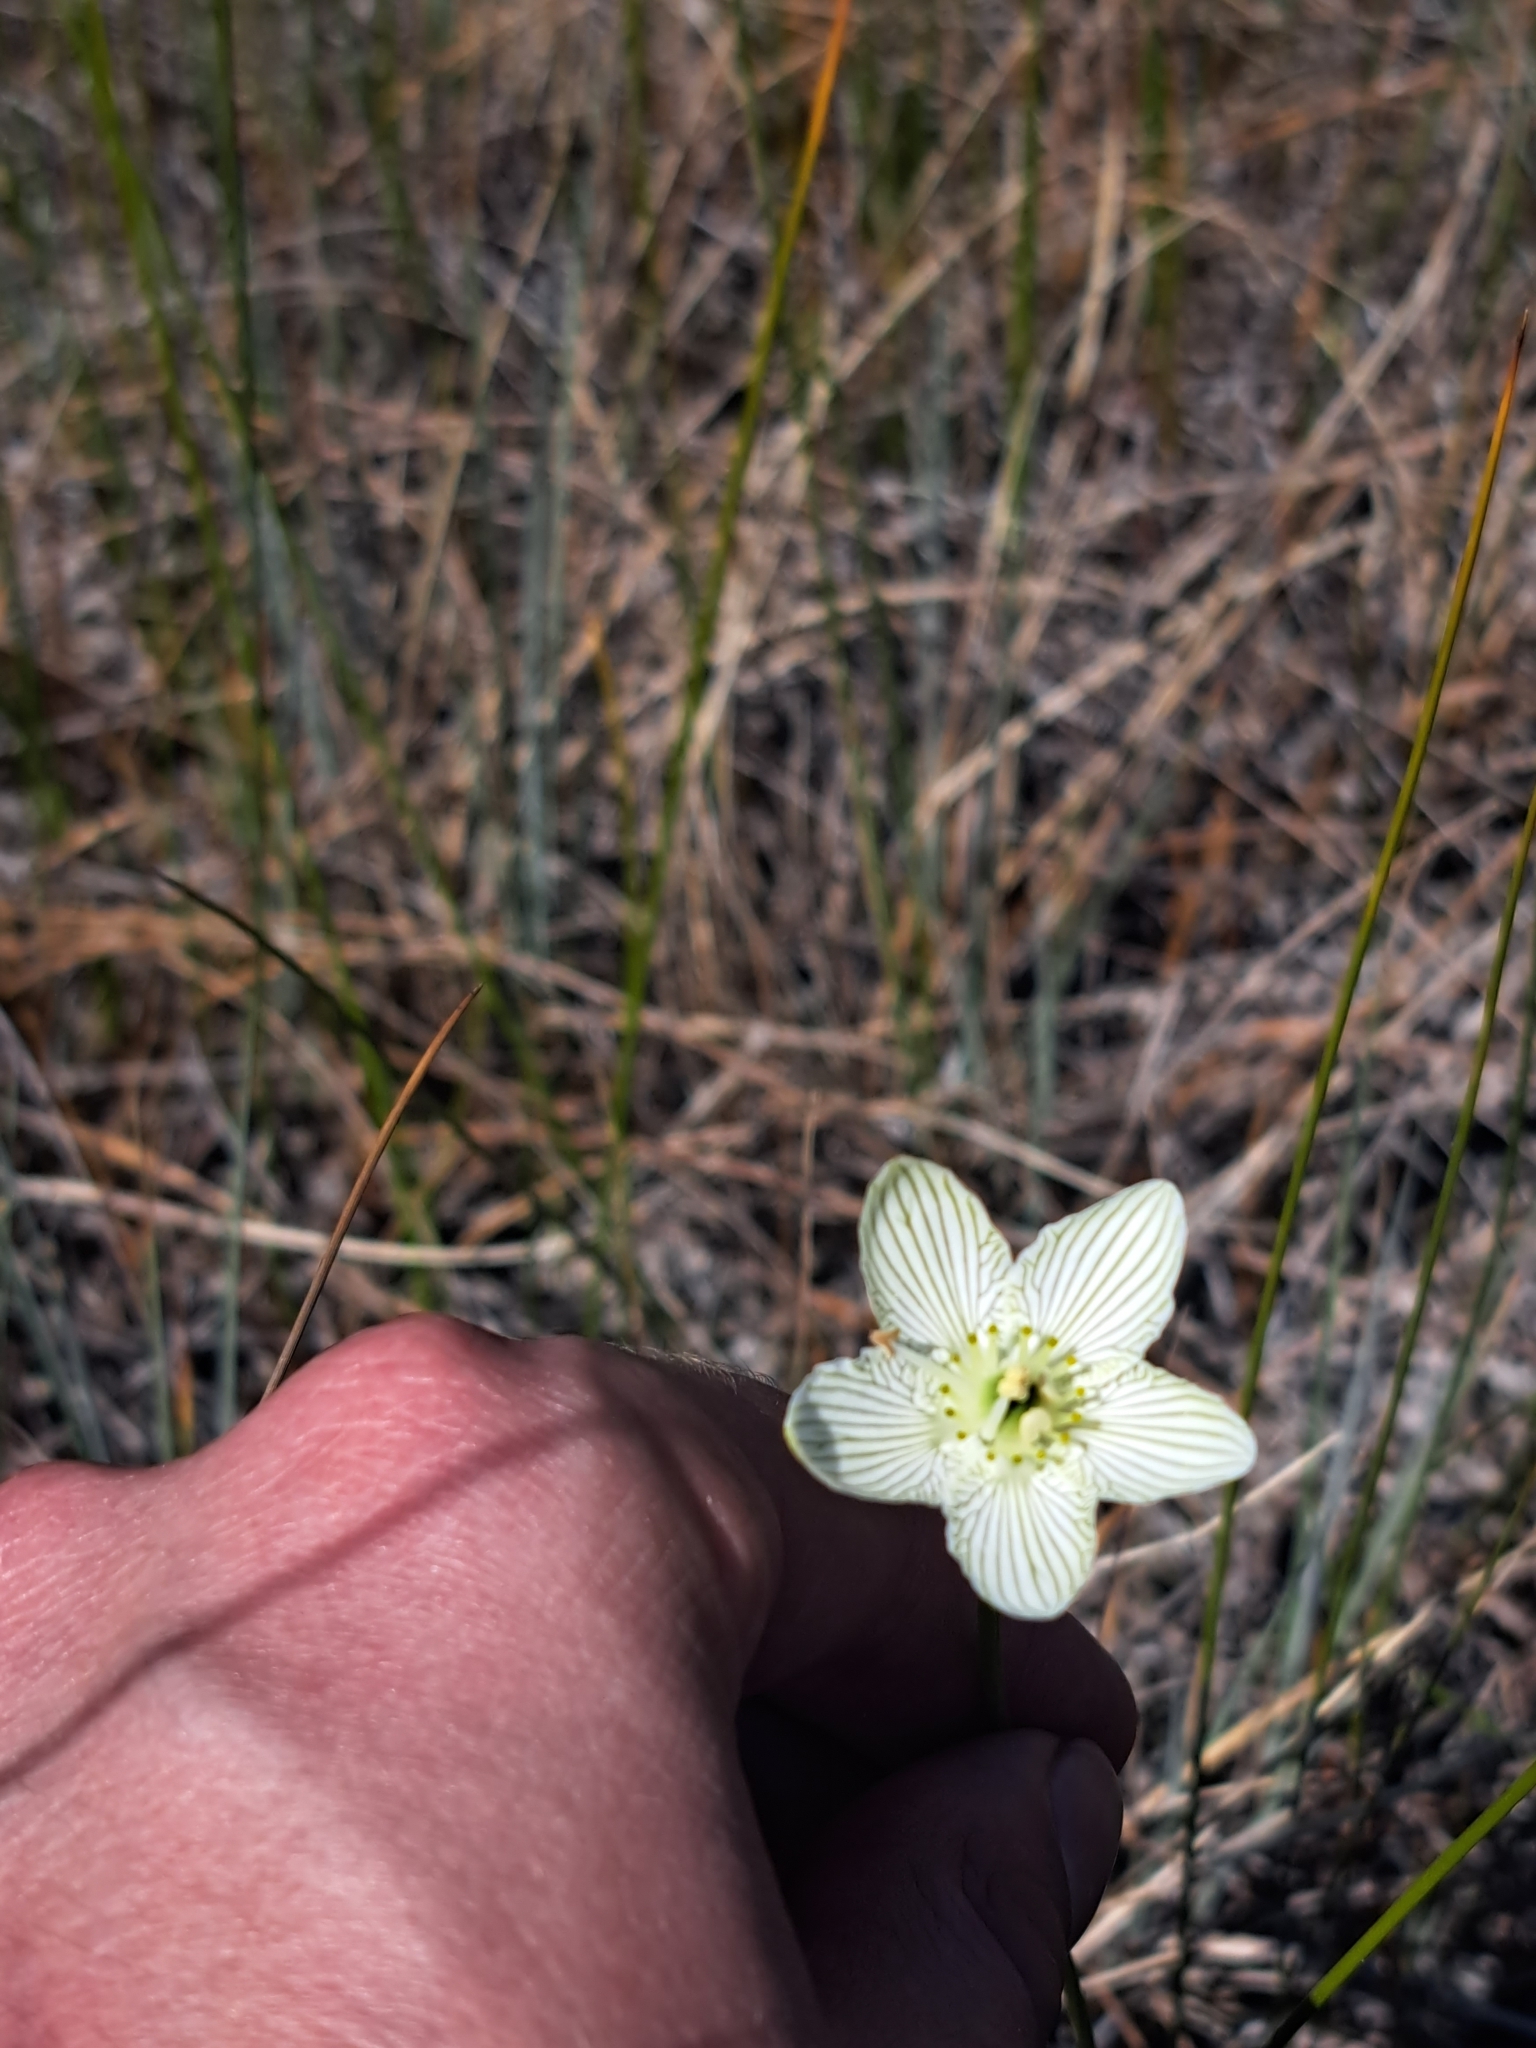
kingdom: Plantae
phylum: Tracheophyta
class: Magnoliopsida
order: Celastrales
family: Parnassiaceae
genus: Parnassia
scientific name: Parnassia glauca
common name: American grass-of-parnassus
